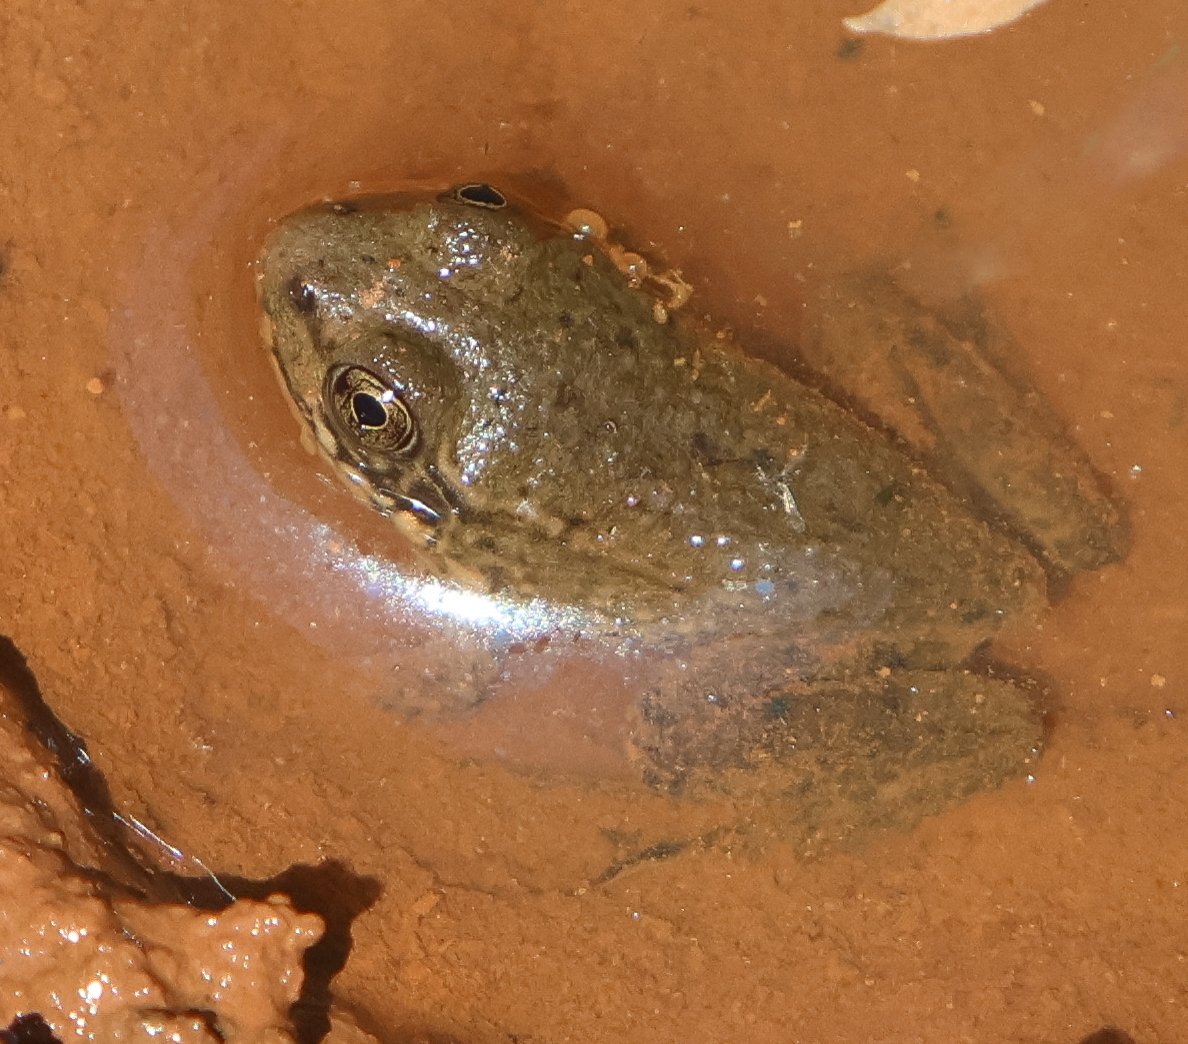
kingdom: Animalia
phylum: Chordata
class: Amphibia
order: Anura
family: Ranidae
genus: Lithobates
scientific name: Lithobates clamitans
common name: Green frog
